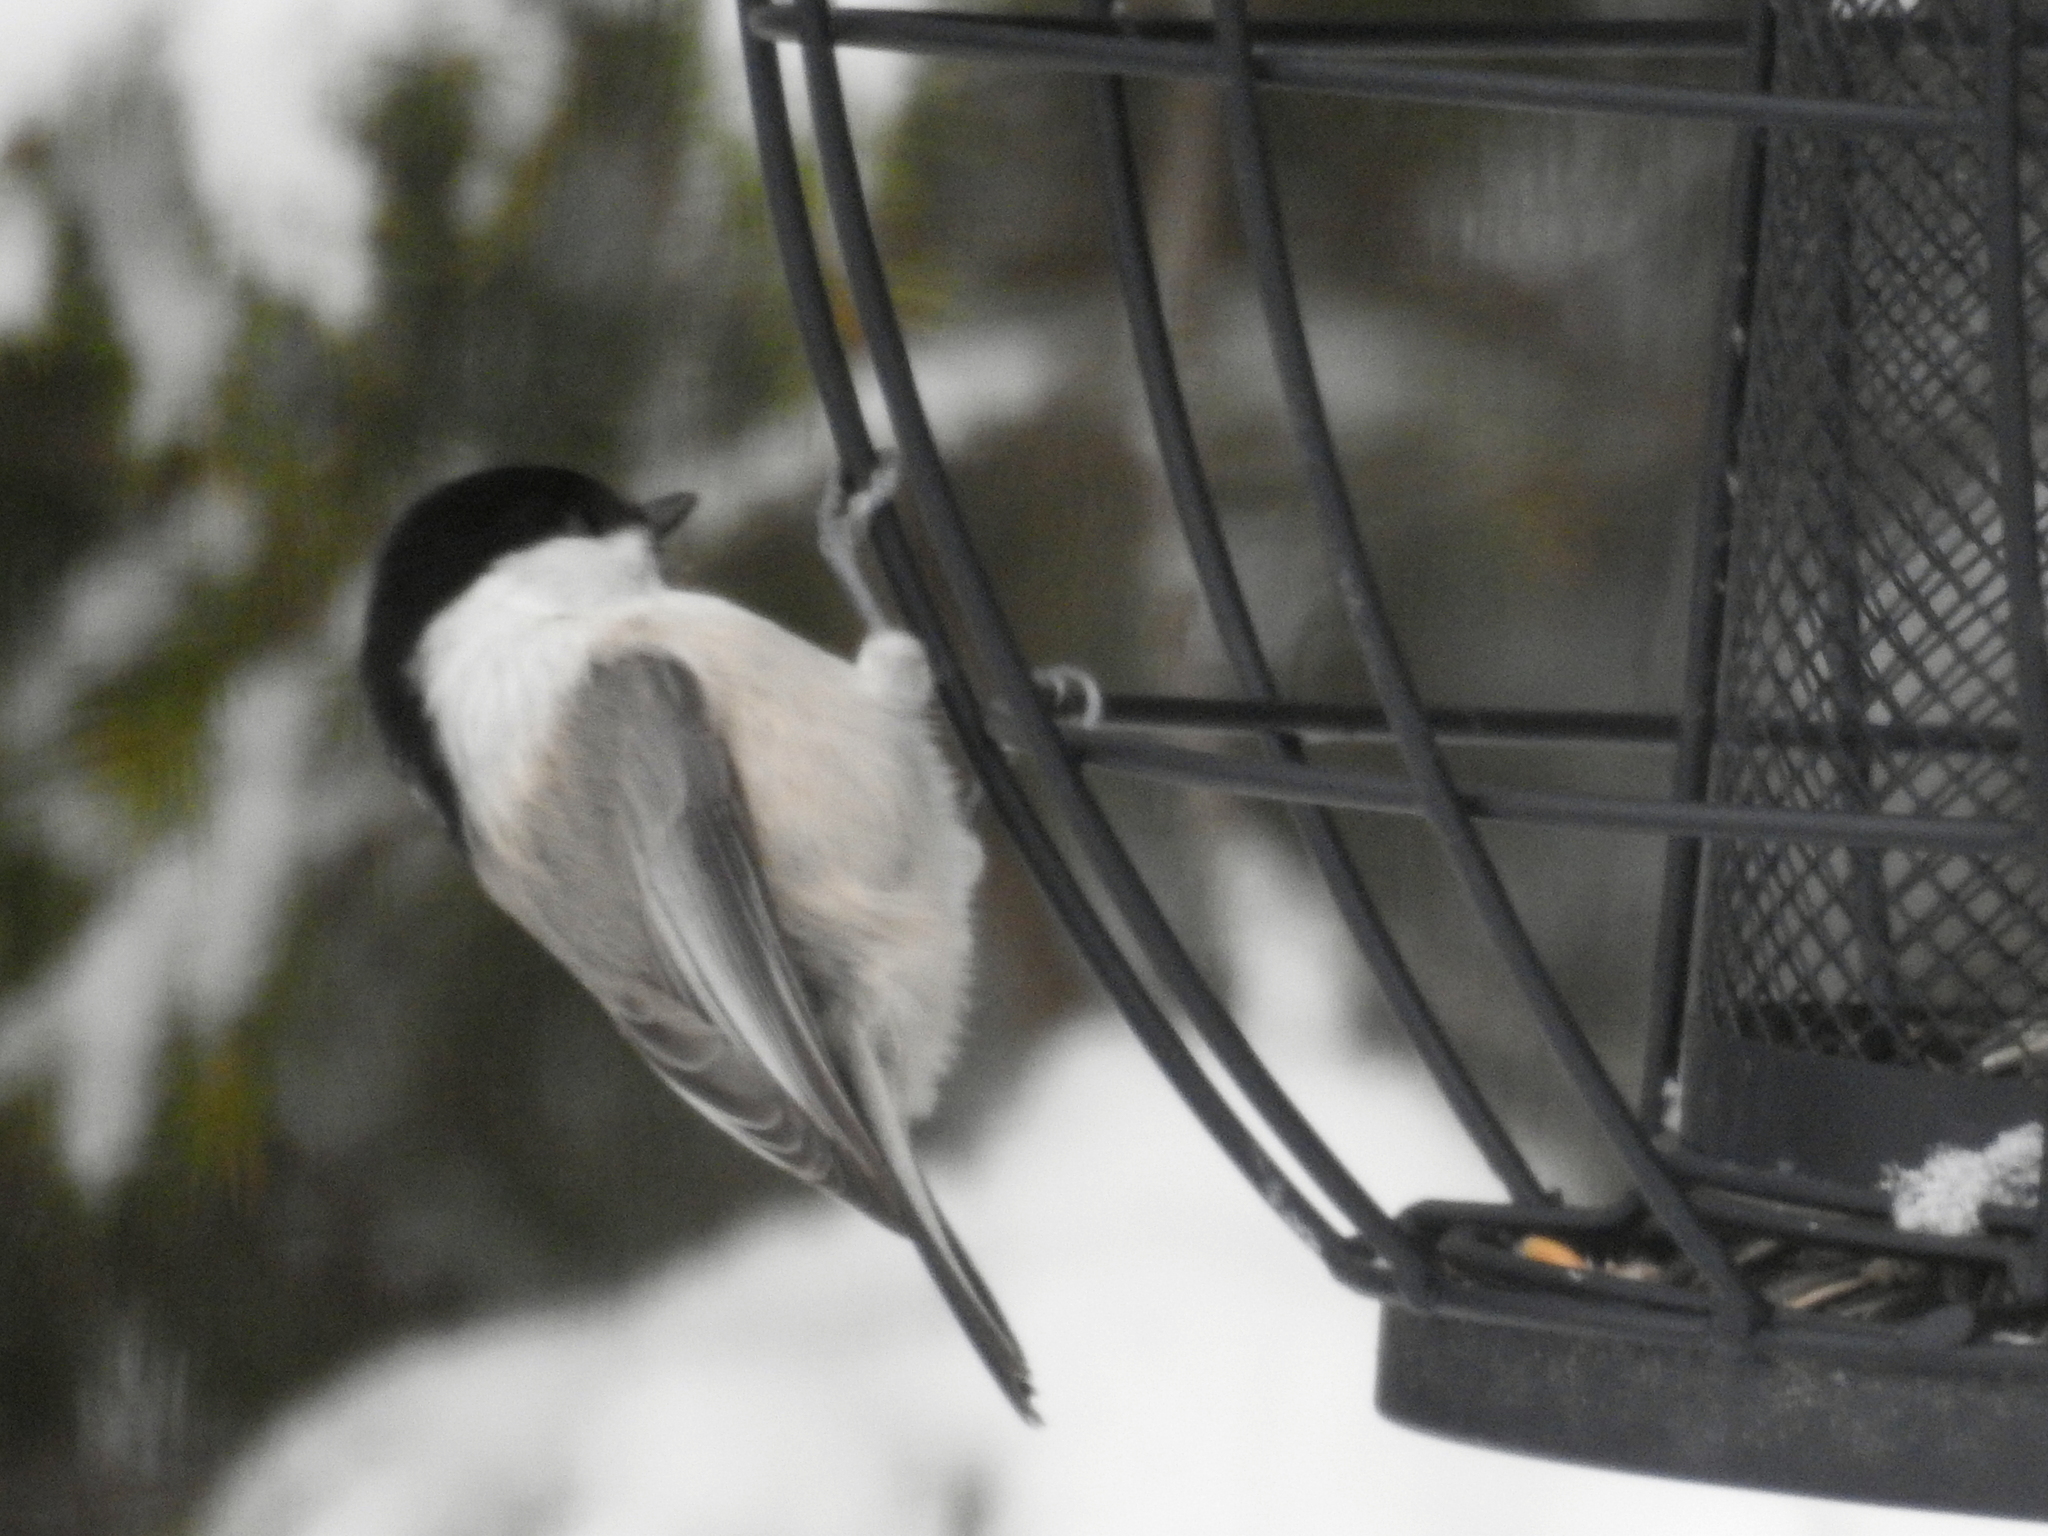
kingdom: Animalia
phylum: Chordata
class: Aves
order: Passeriformes
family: Paridae
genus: Poecile
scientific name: Poecile montanus
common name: Willow tit
